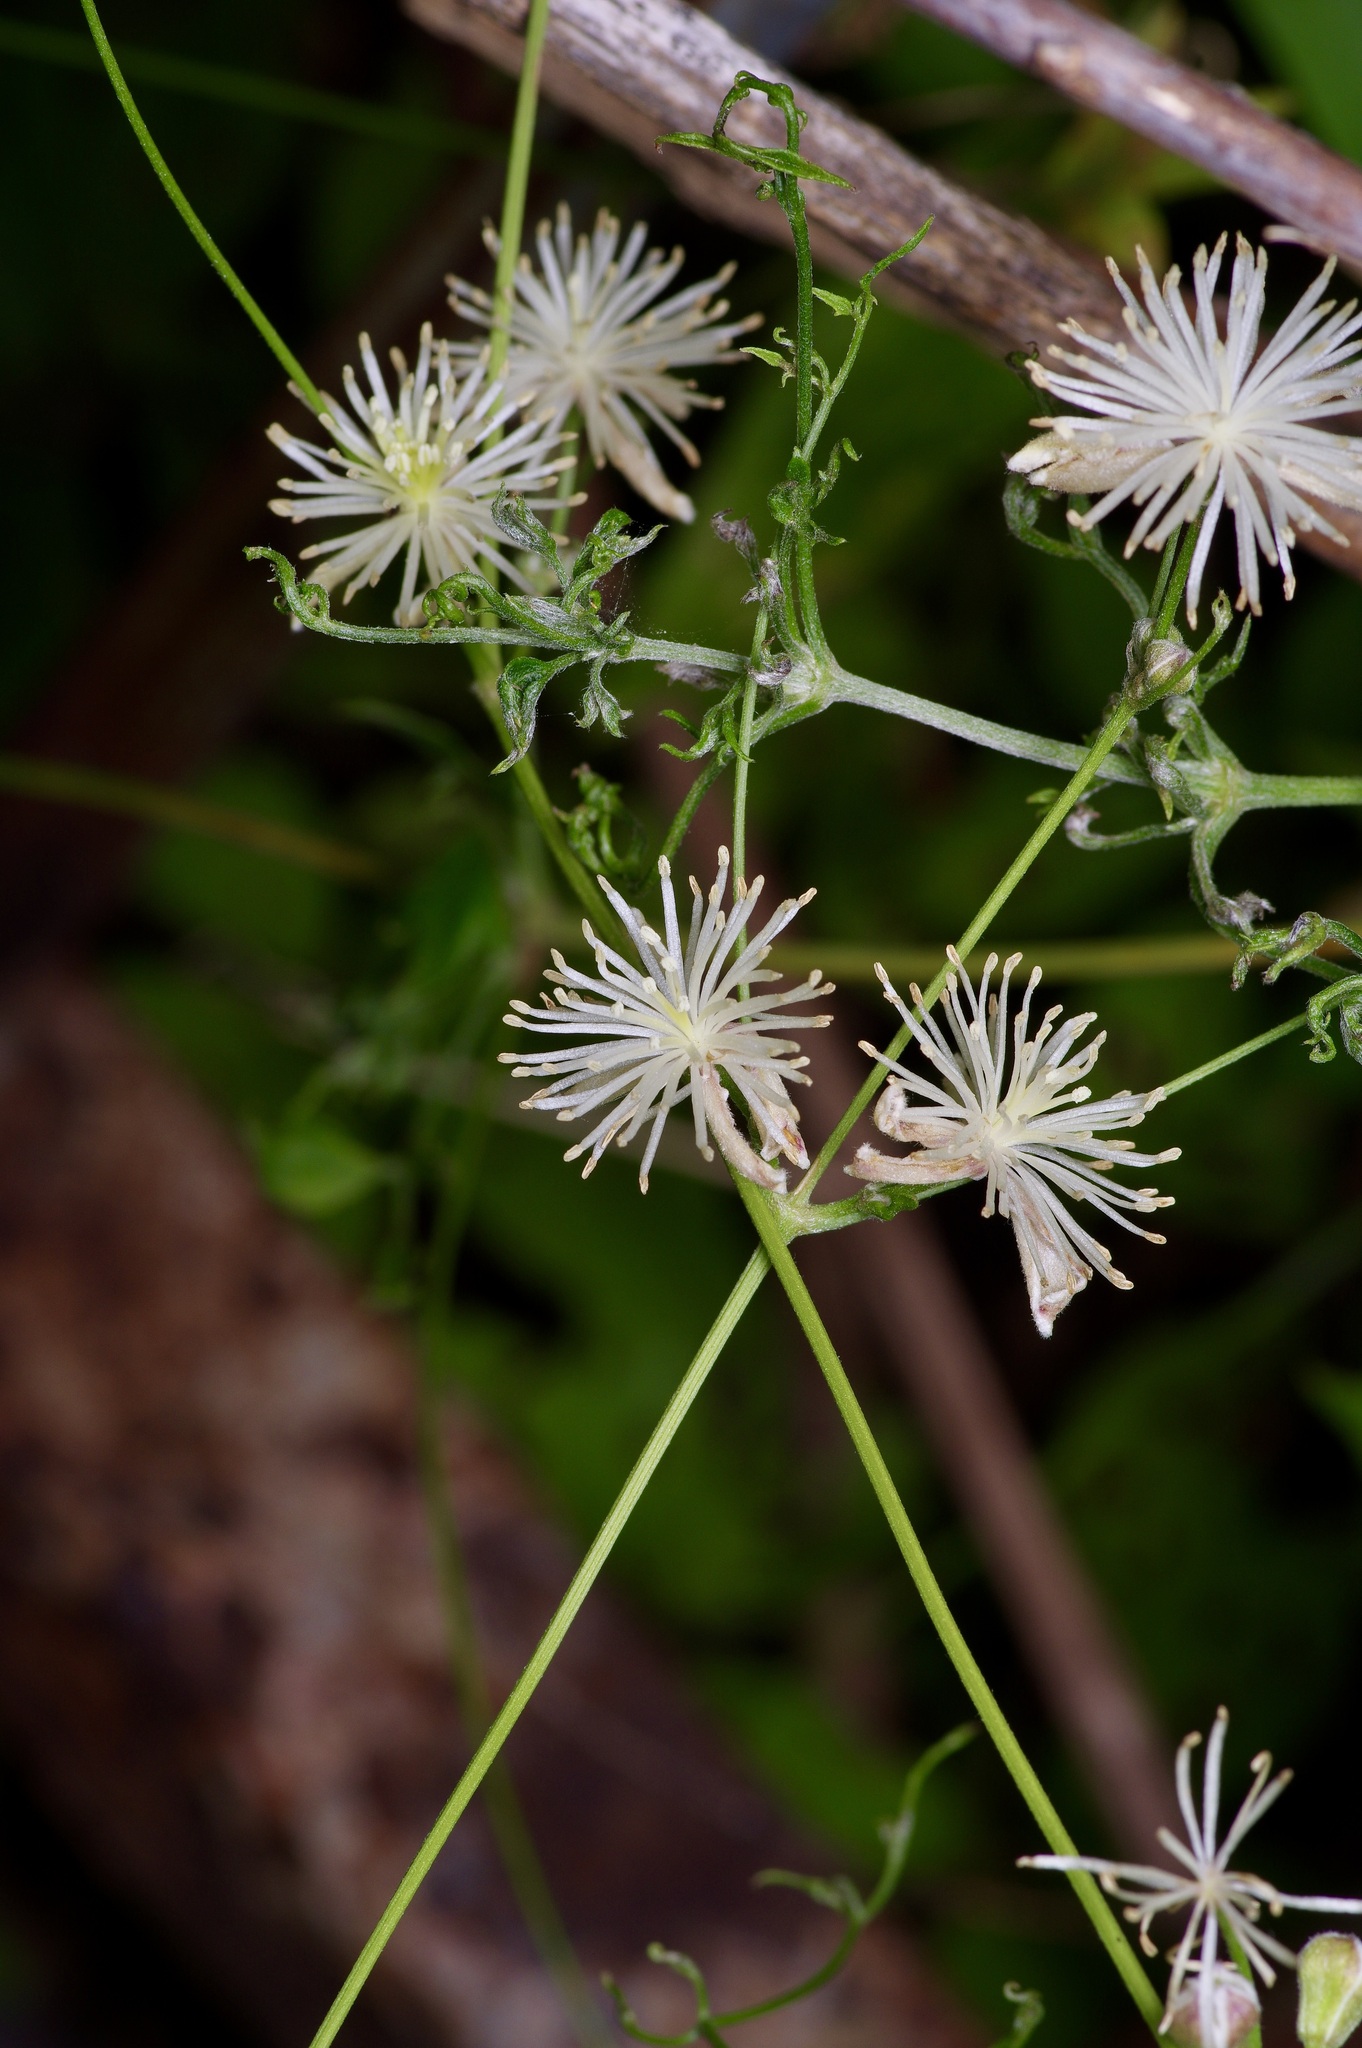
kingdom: Plantae
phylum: Tracheophyta
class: Magnoliopsida
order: Ranunculales
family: Ranunculaceae
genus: Clematis
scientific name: Clematis drummondii
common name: Texas virgin's bower
